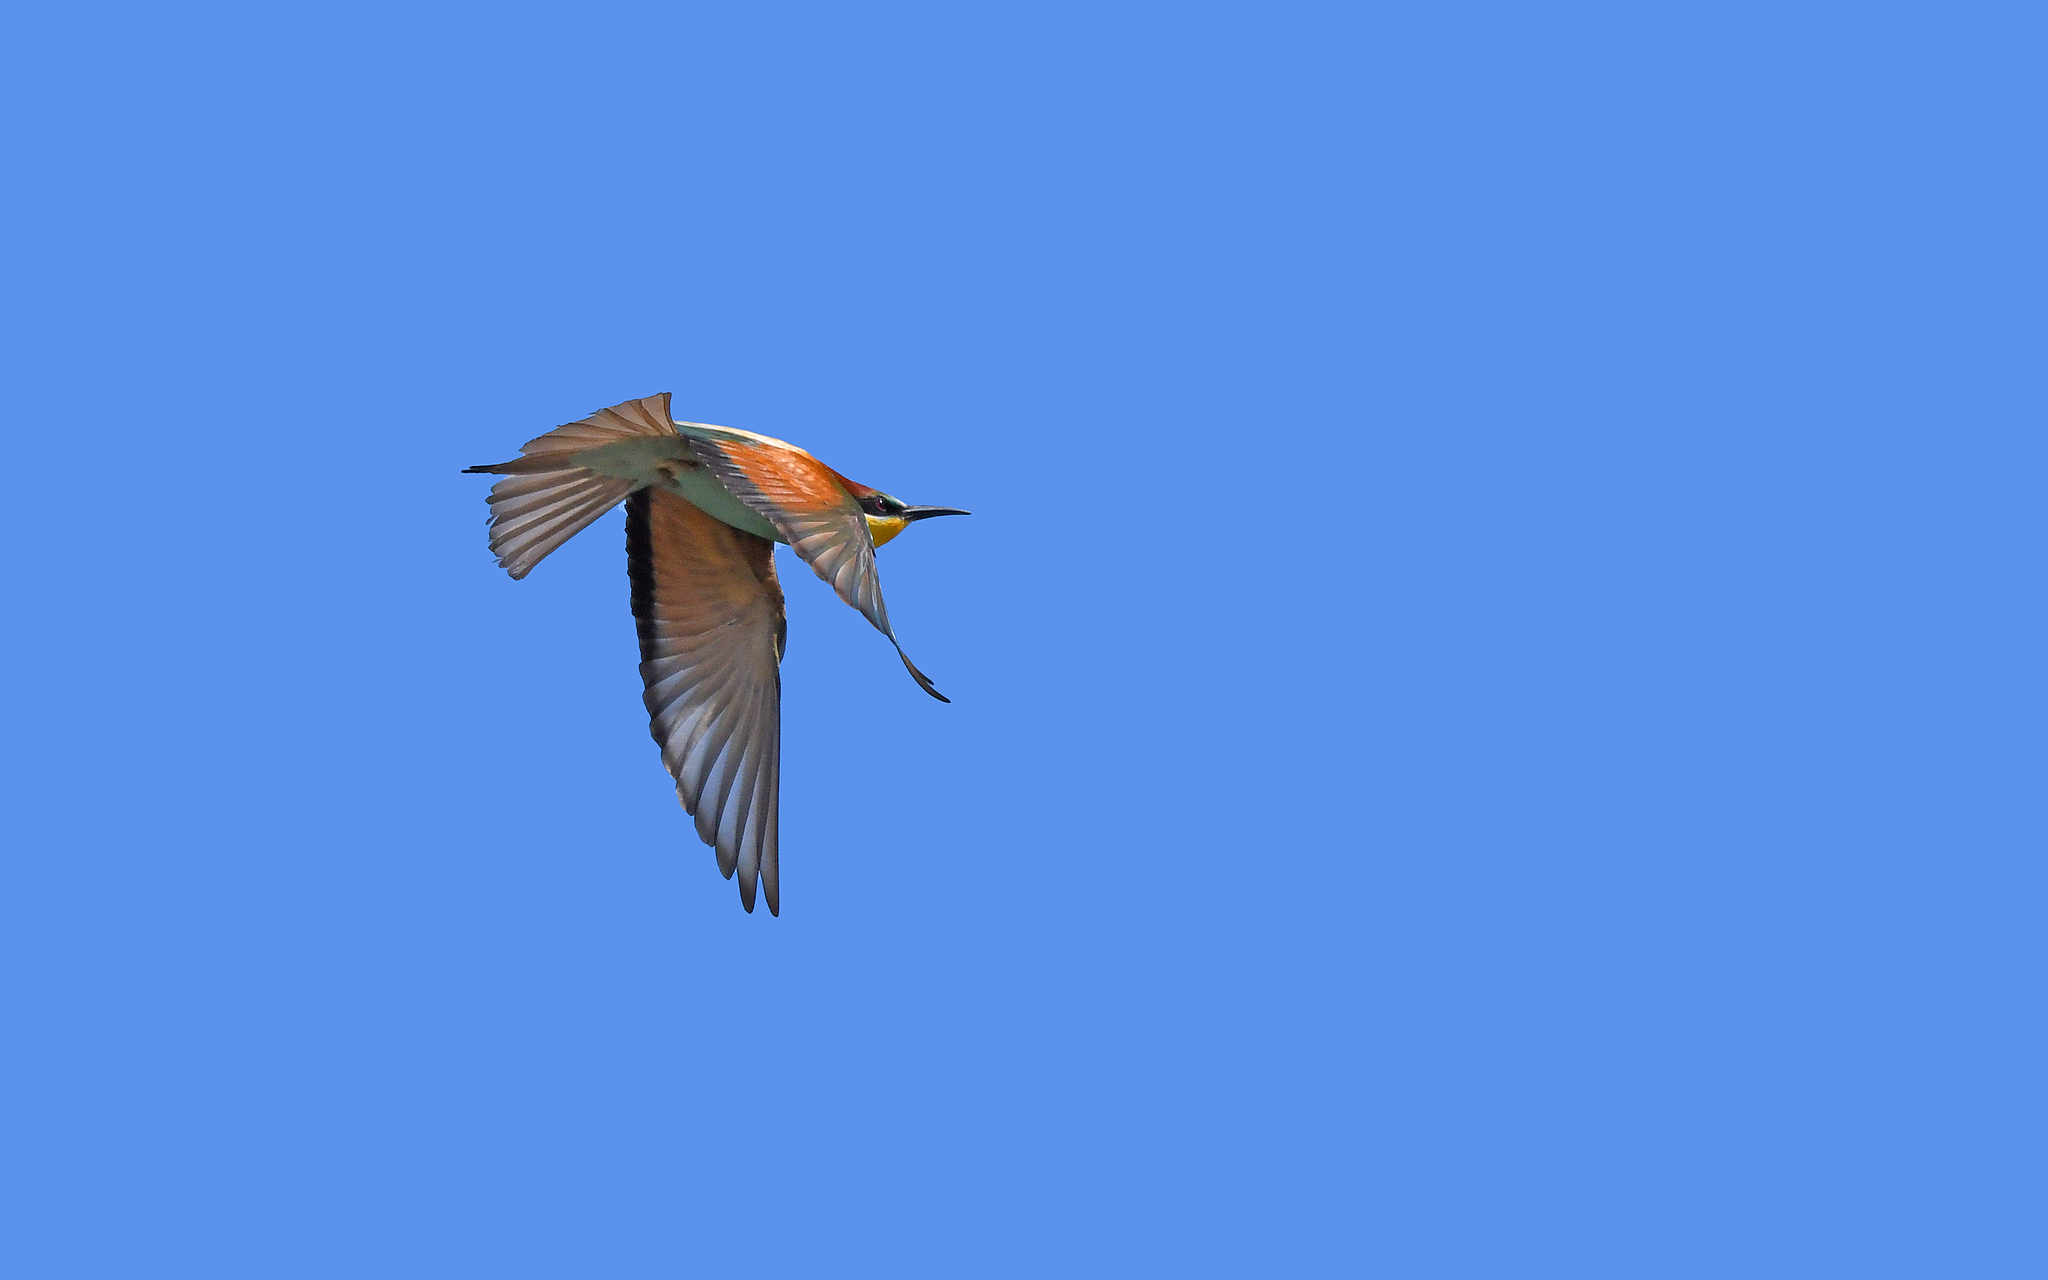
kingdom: Animalia
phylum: Chordata
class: Aves
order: Coraciiformes
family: Meropidae
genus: Merops
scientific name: Merops apiaster
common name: European bee-eater
